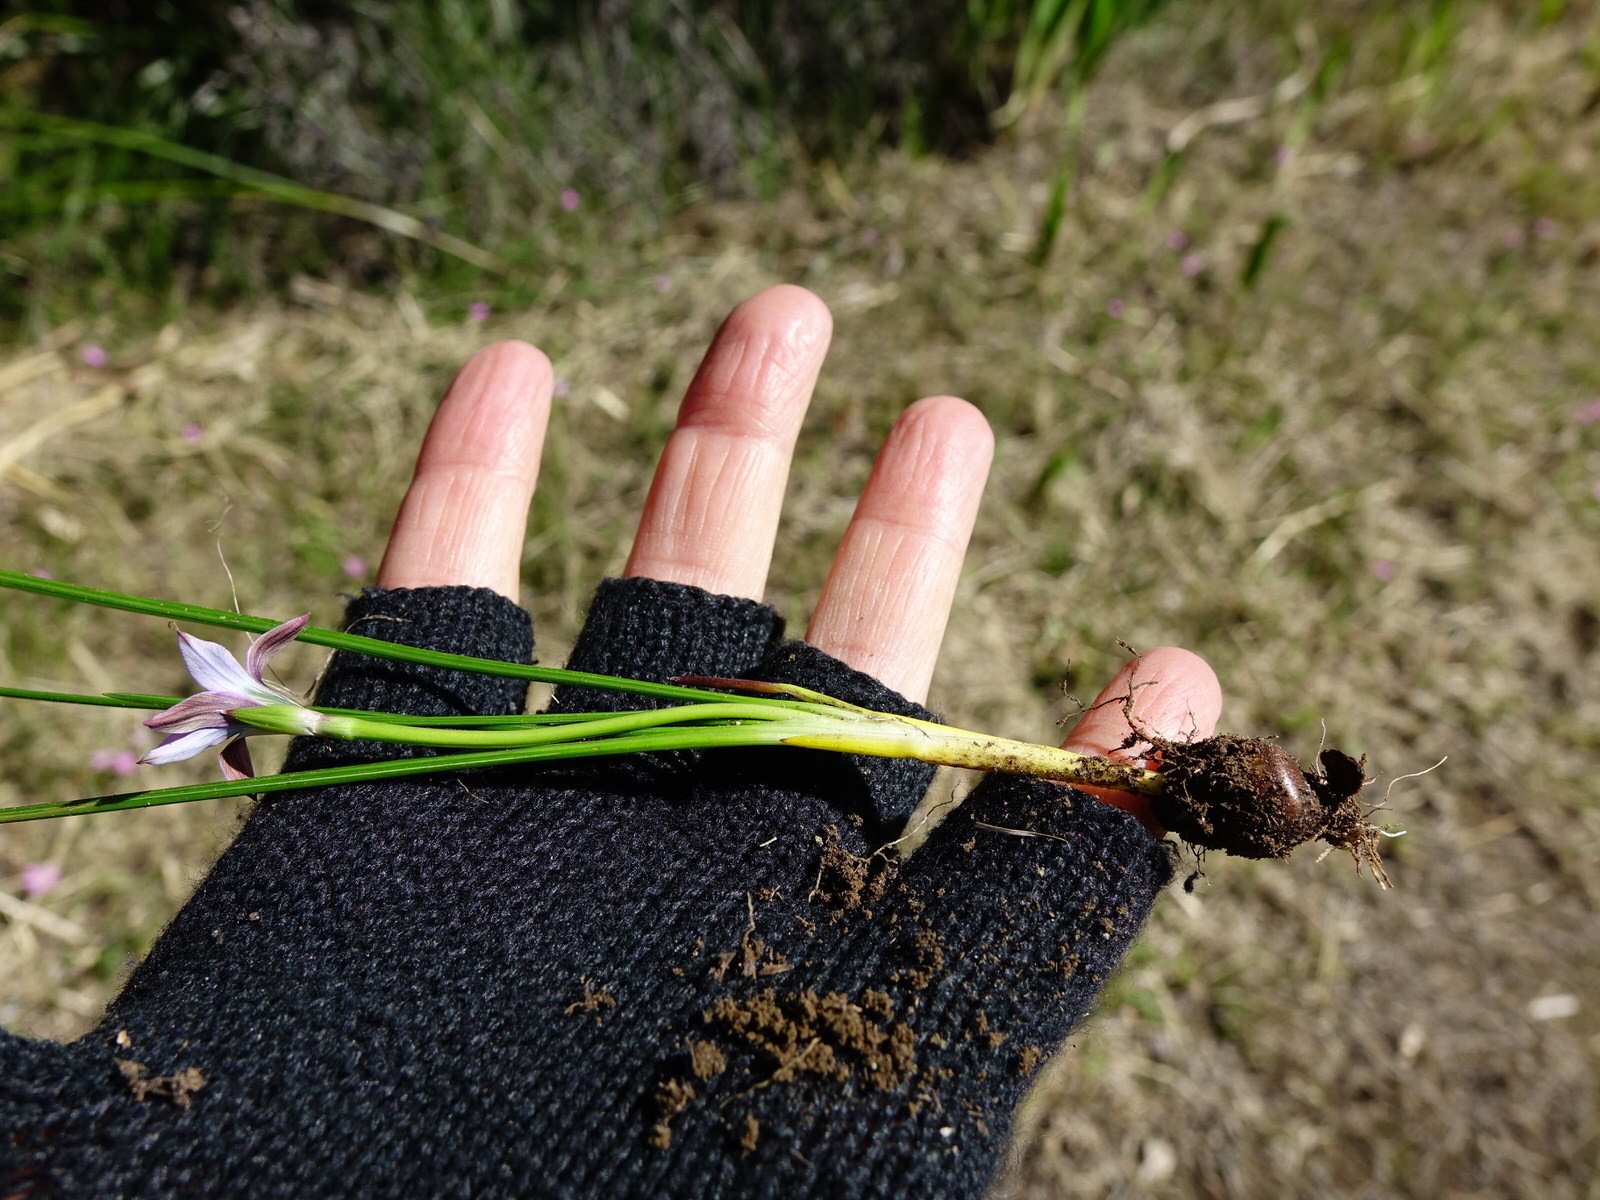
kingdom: Plantae
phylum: Tracheophyta
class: Liliopsida
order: Asparagales
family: Iridaceae
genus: Romulea
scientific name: Romulea rosea
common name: Oniongrass
